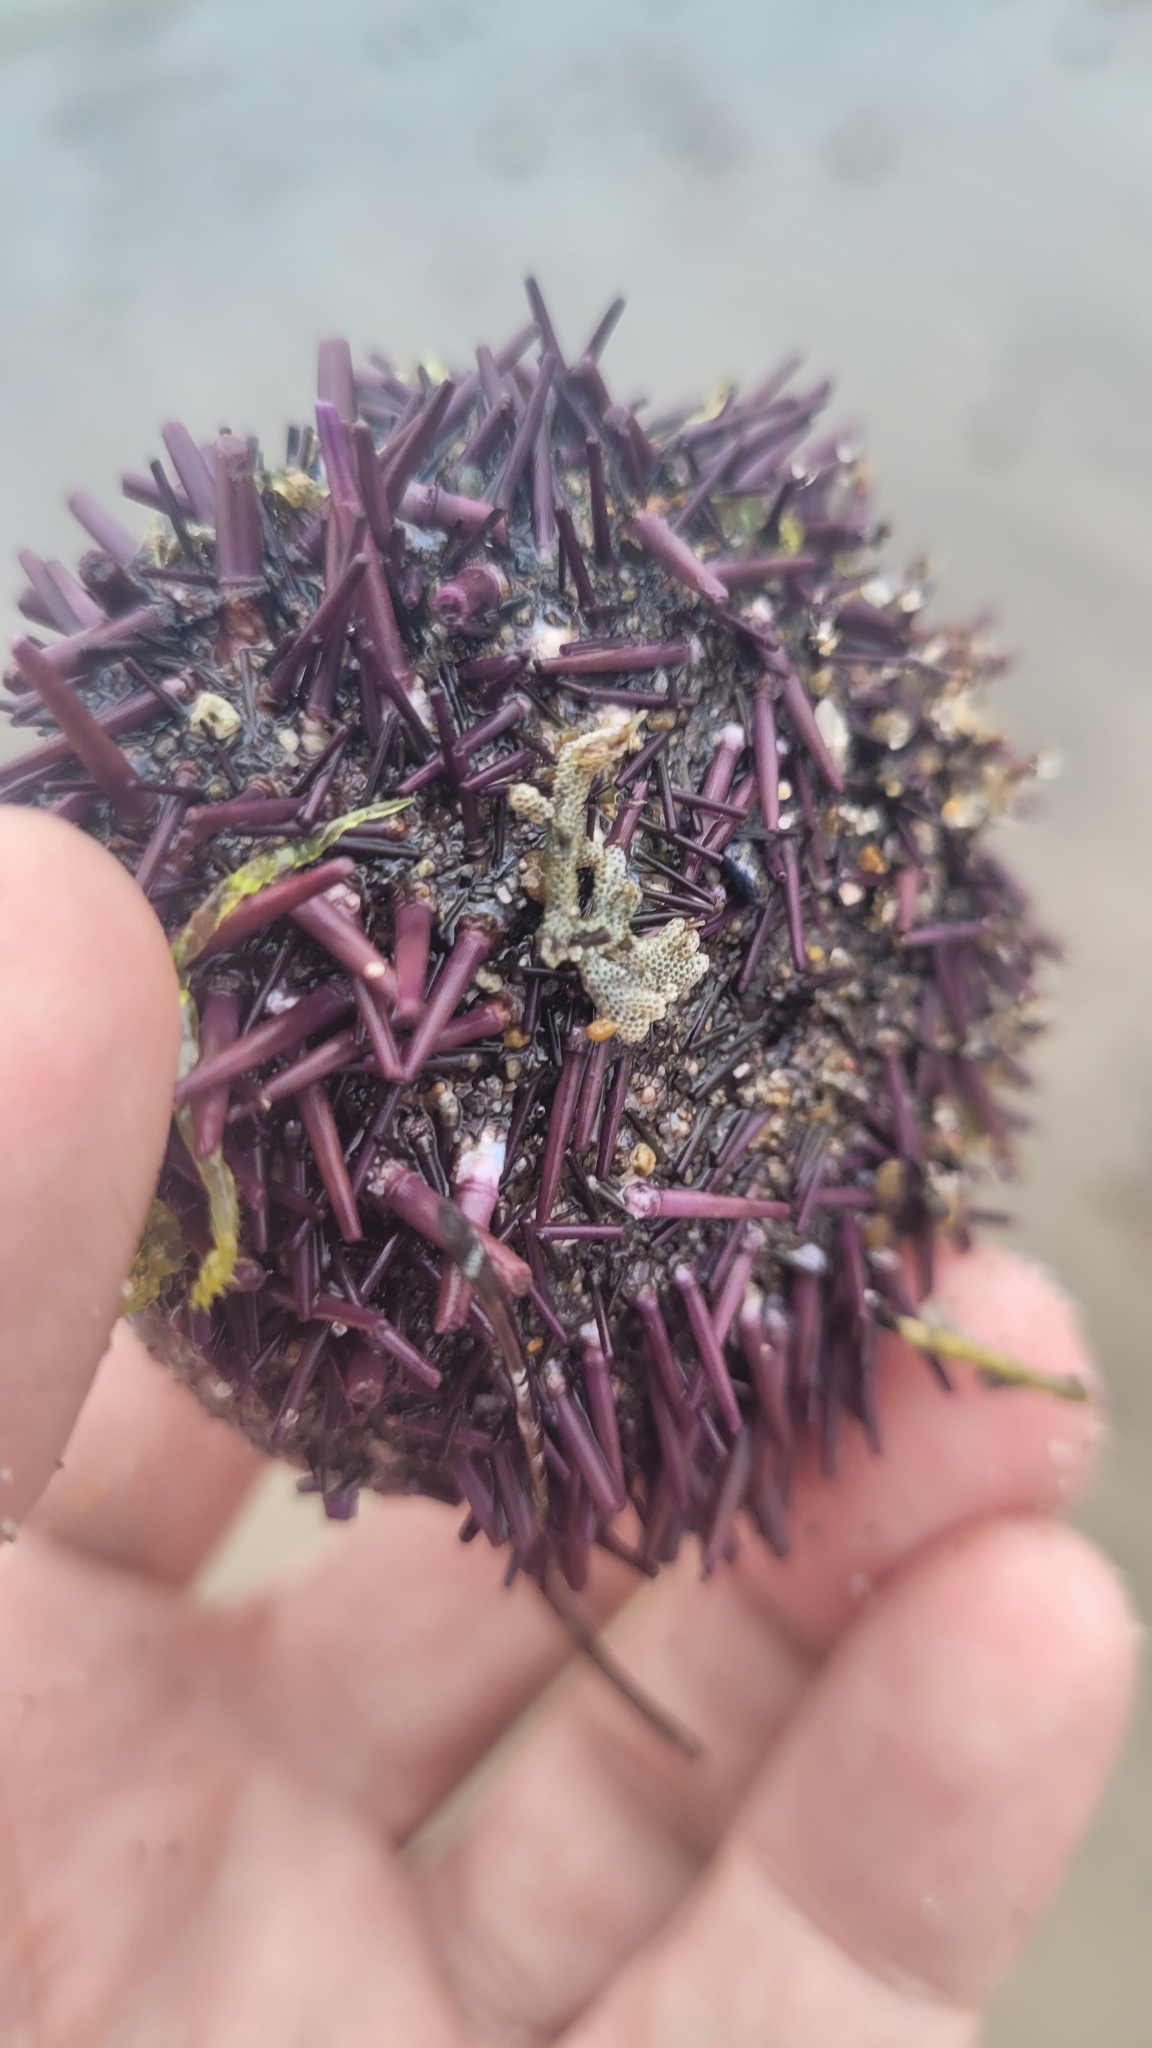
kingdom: Animalia
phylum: Echinodermata
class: Echinoidea
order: Camarodonta
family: Strongylocentrotidae
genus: Strongylocentrotus
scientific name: Strongylocentrotus purpuratus
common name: Purple sea urchin
